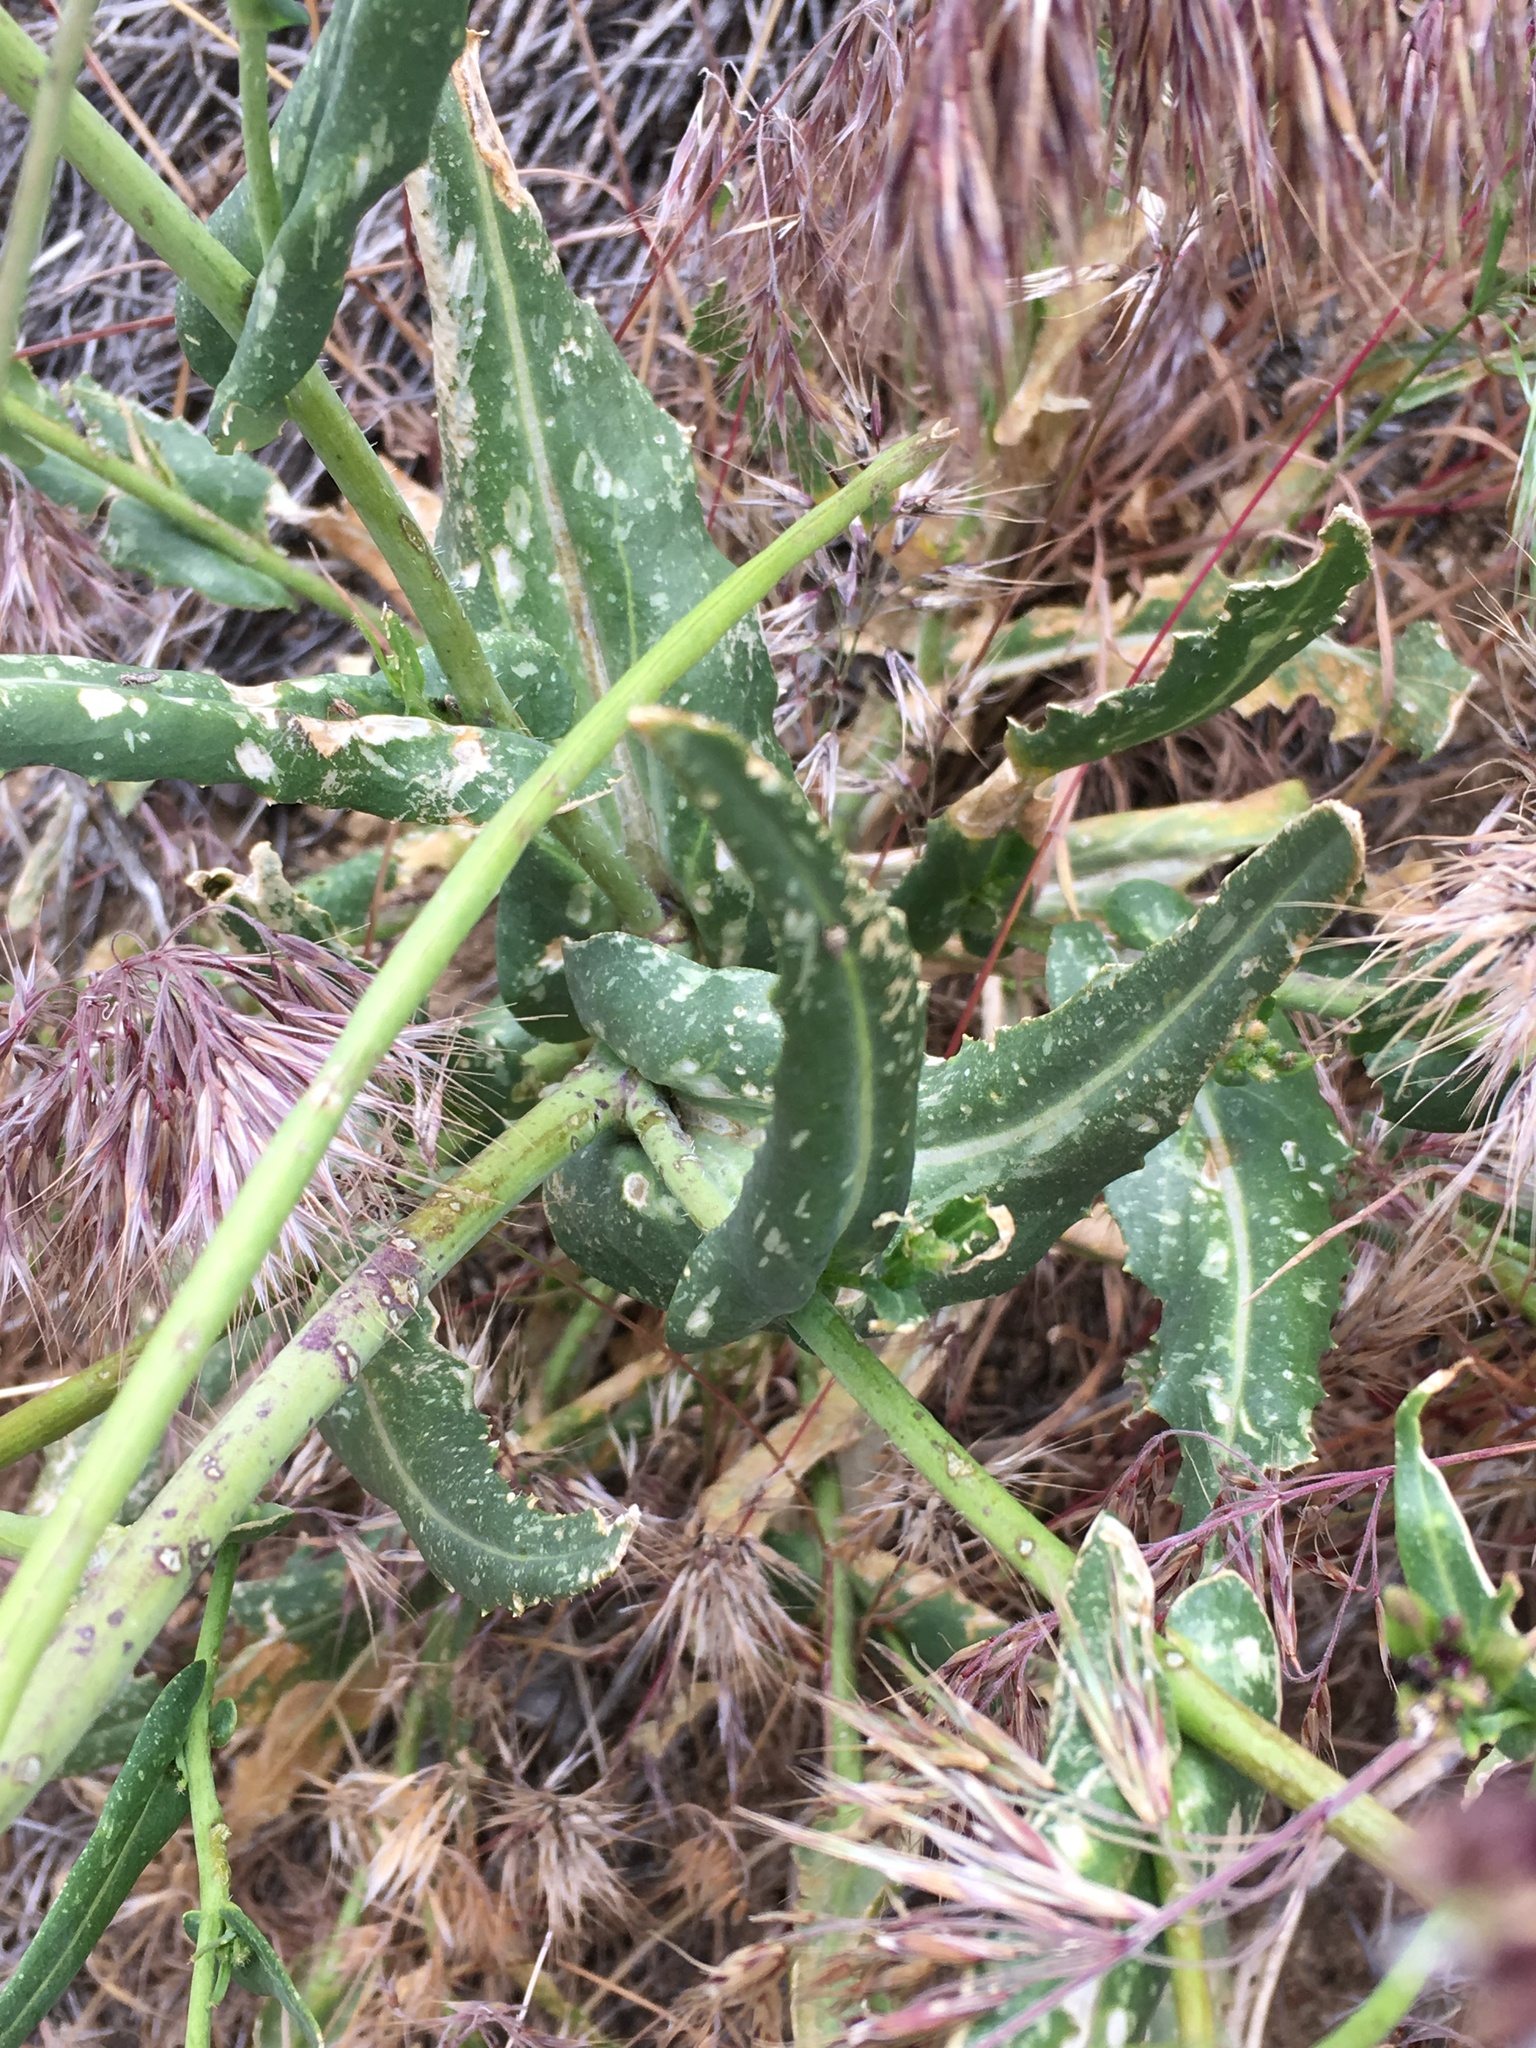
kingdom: Plantae
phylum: Tracheophyta
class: Magnoliopsida
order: Brassicales
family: Brassicaceae
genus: Streptanthus
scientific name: Streptanthus coulteri
